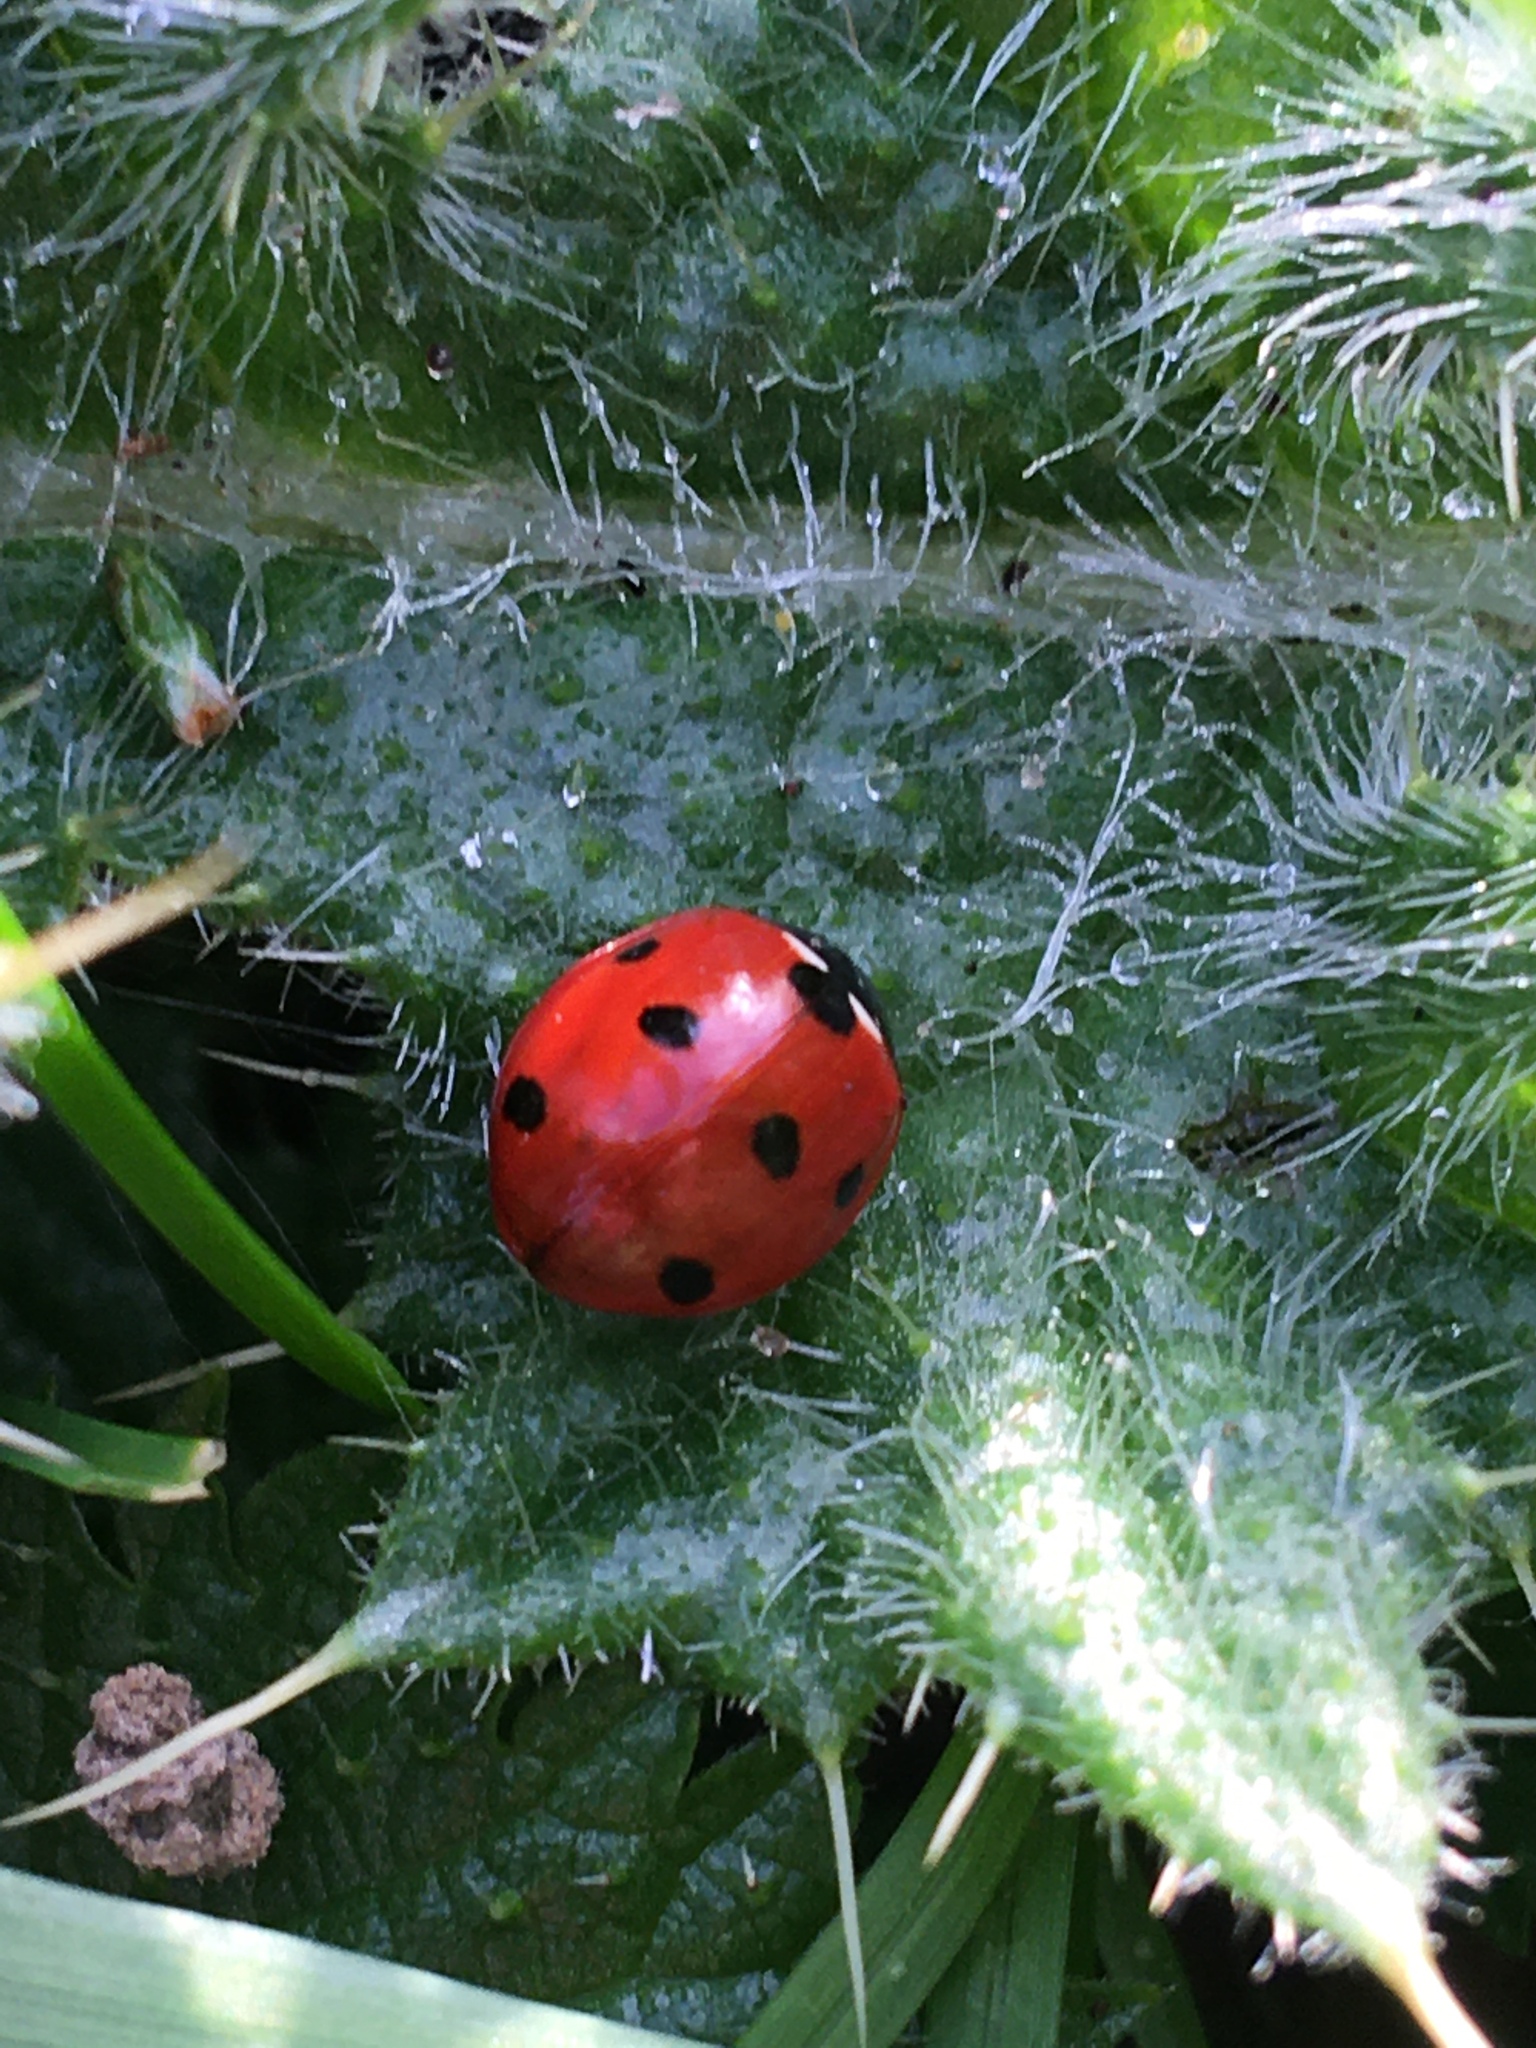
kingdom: Animalia
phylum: Arthropoda
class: Insecta
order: Coleoptera
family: Coccinellidae
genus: Coccinella
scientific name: Coccinella septempunctata
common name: Sevenspotted lady beetle
